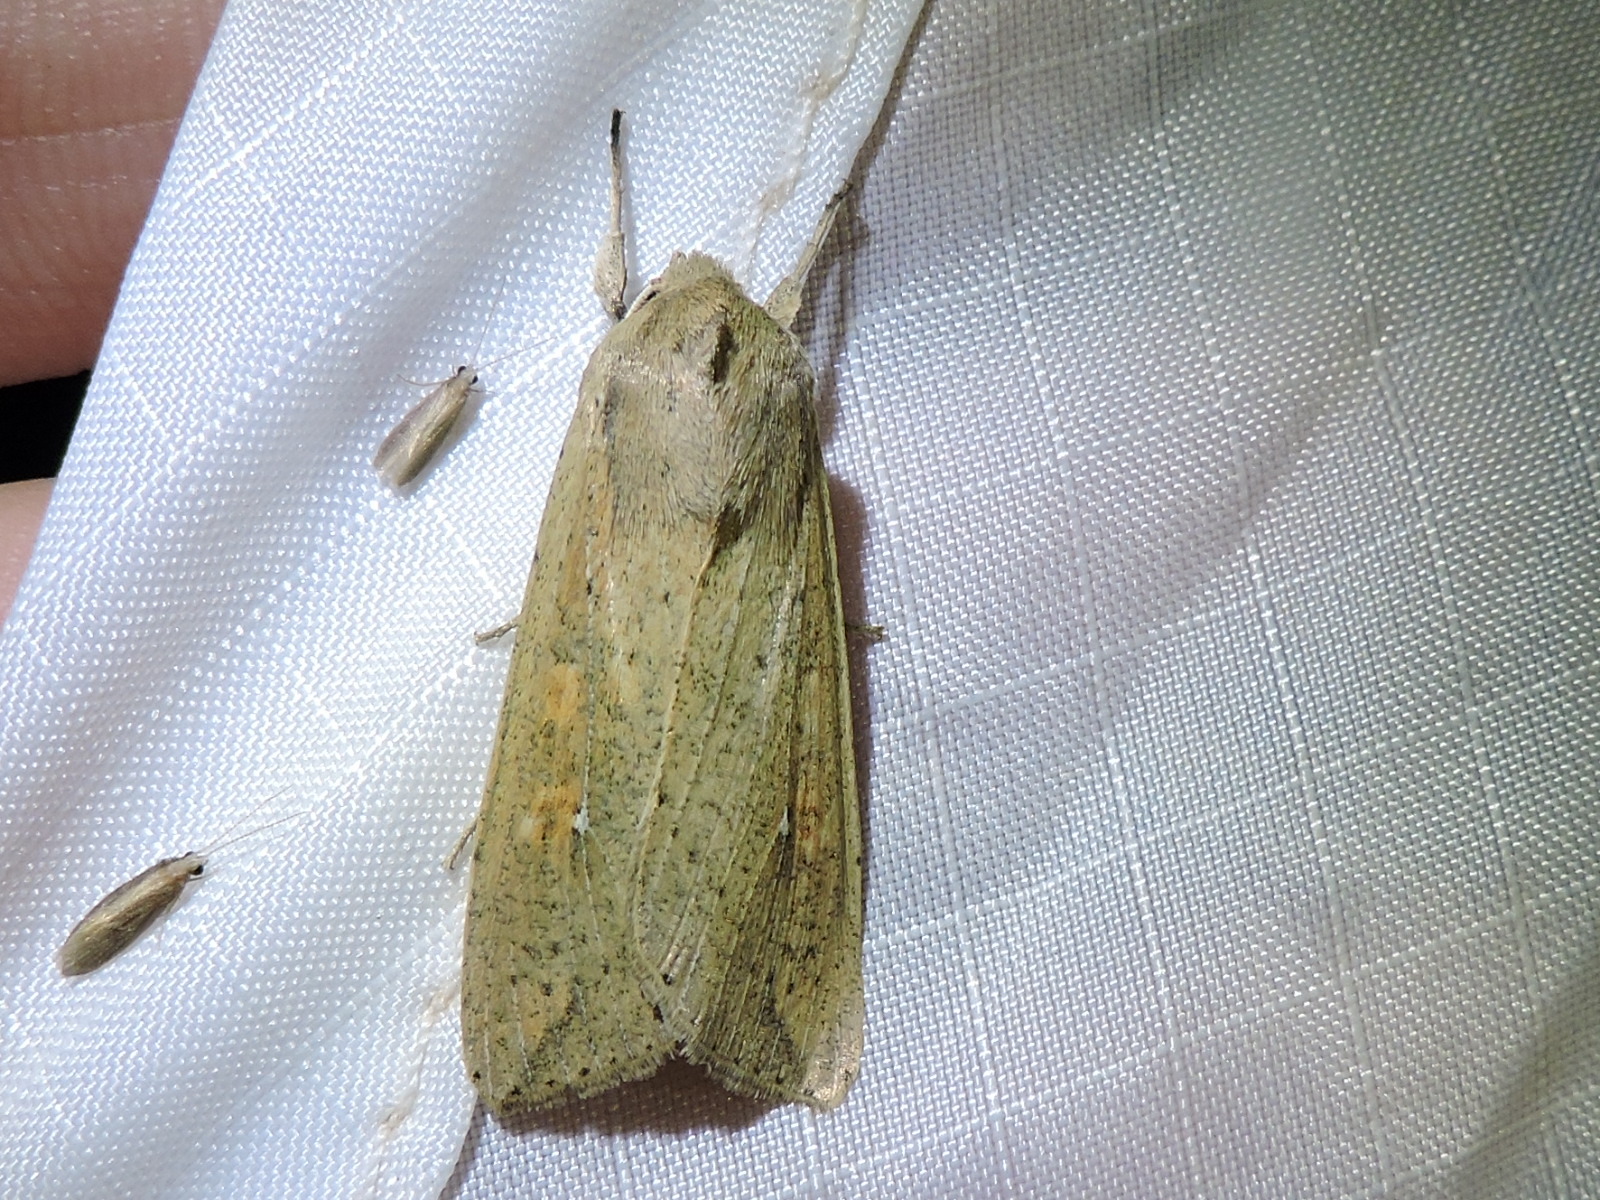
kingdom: Animalia
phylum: Arthropoda
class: Insecta
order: Lepidoptera
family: Noctuidae
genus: Mythimna
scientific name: Mythimna unipuncta
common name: White-speck
